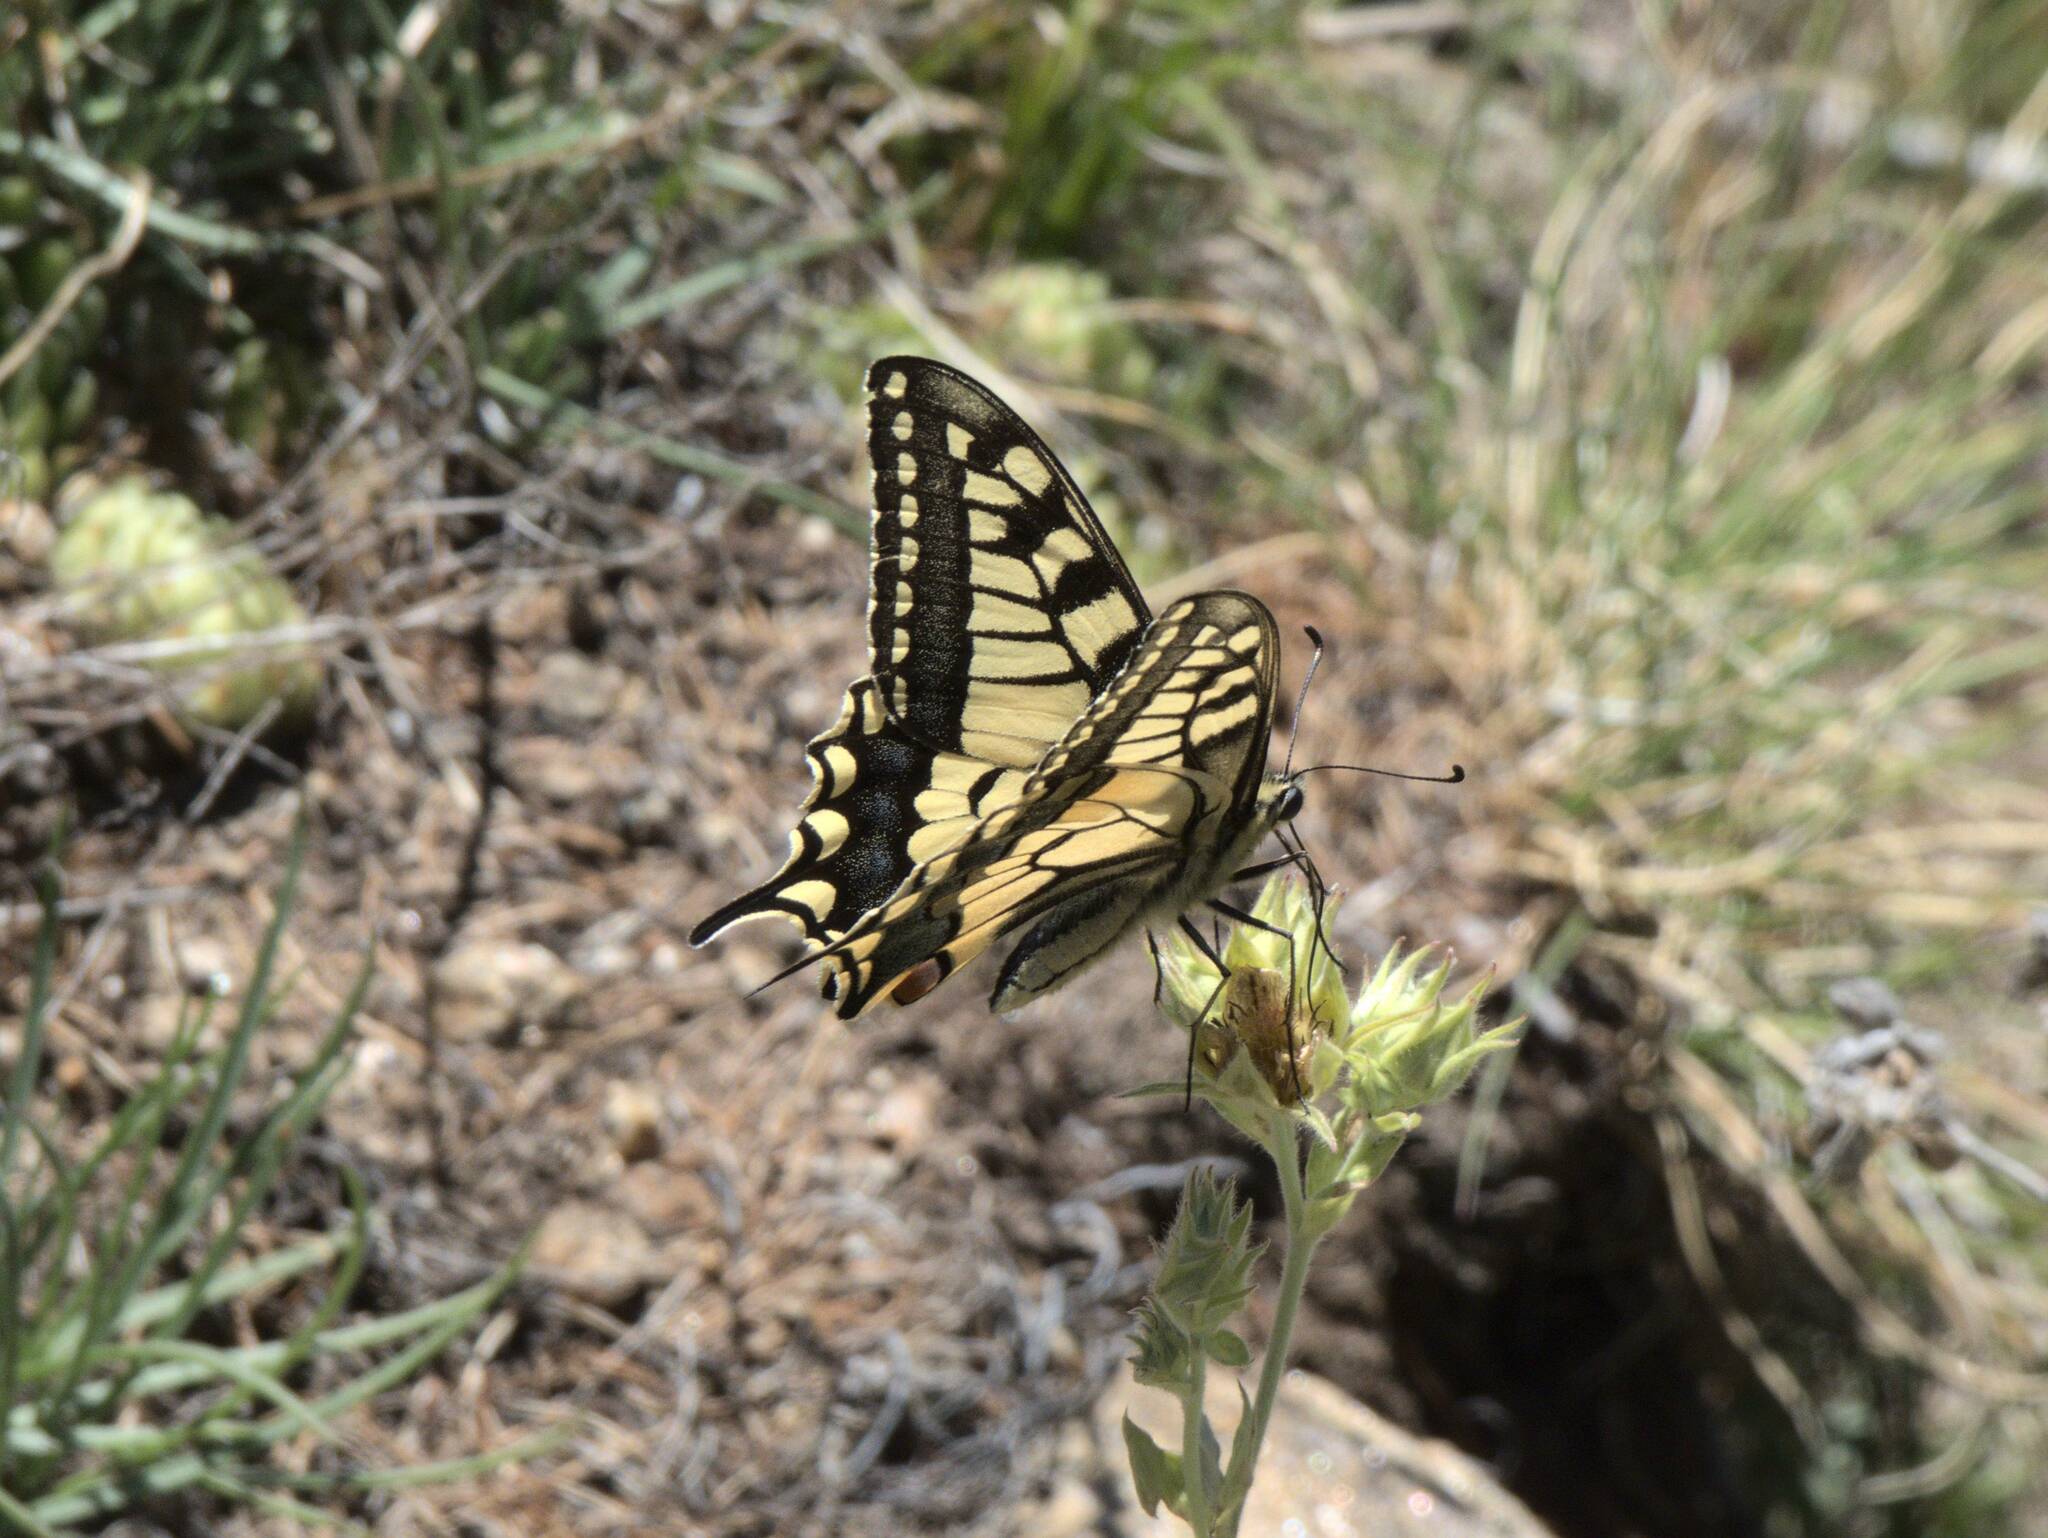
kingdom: Animalia
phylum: Arthropoda
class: Insecta
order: Lepidoptera
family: Papilionidae
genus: Papilio
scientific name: Papilio machaon
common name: Swallowtail
